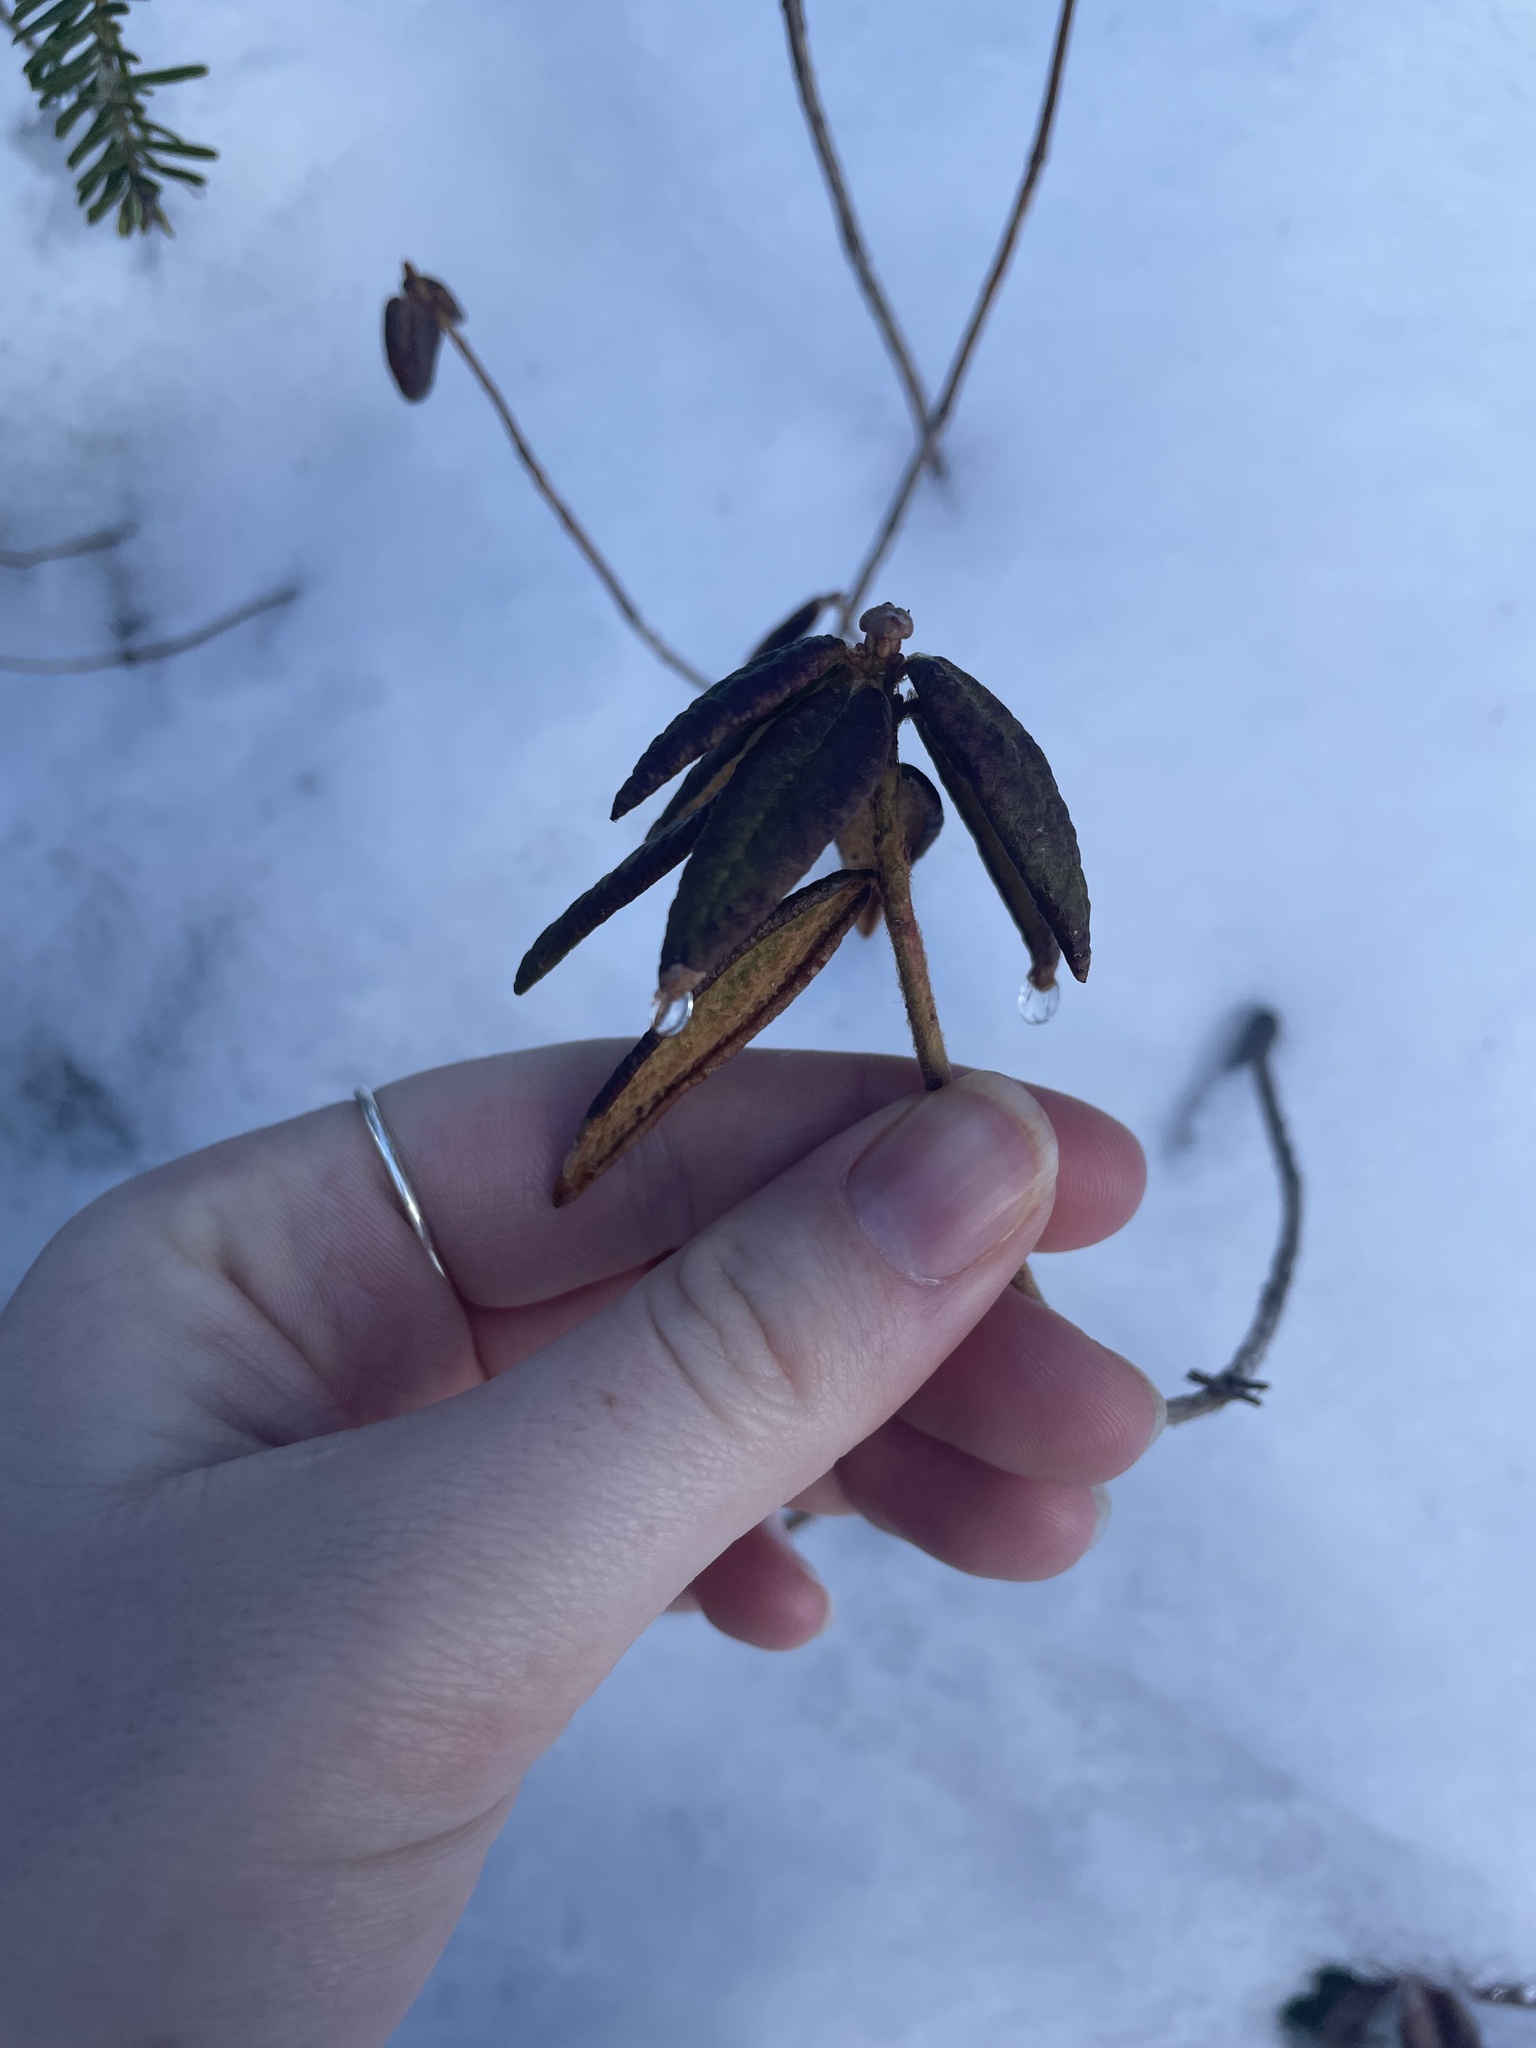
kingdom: Plantae
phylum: Tracheophyta
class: Magnoliopsida
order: Ericales
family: Ericaceae
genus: Rhododendron
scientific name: Rhododendron groenlandicum
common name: Bog labrador tea
